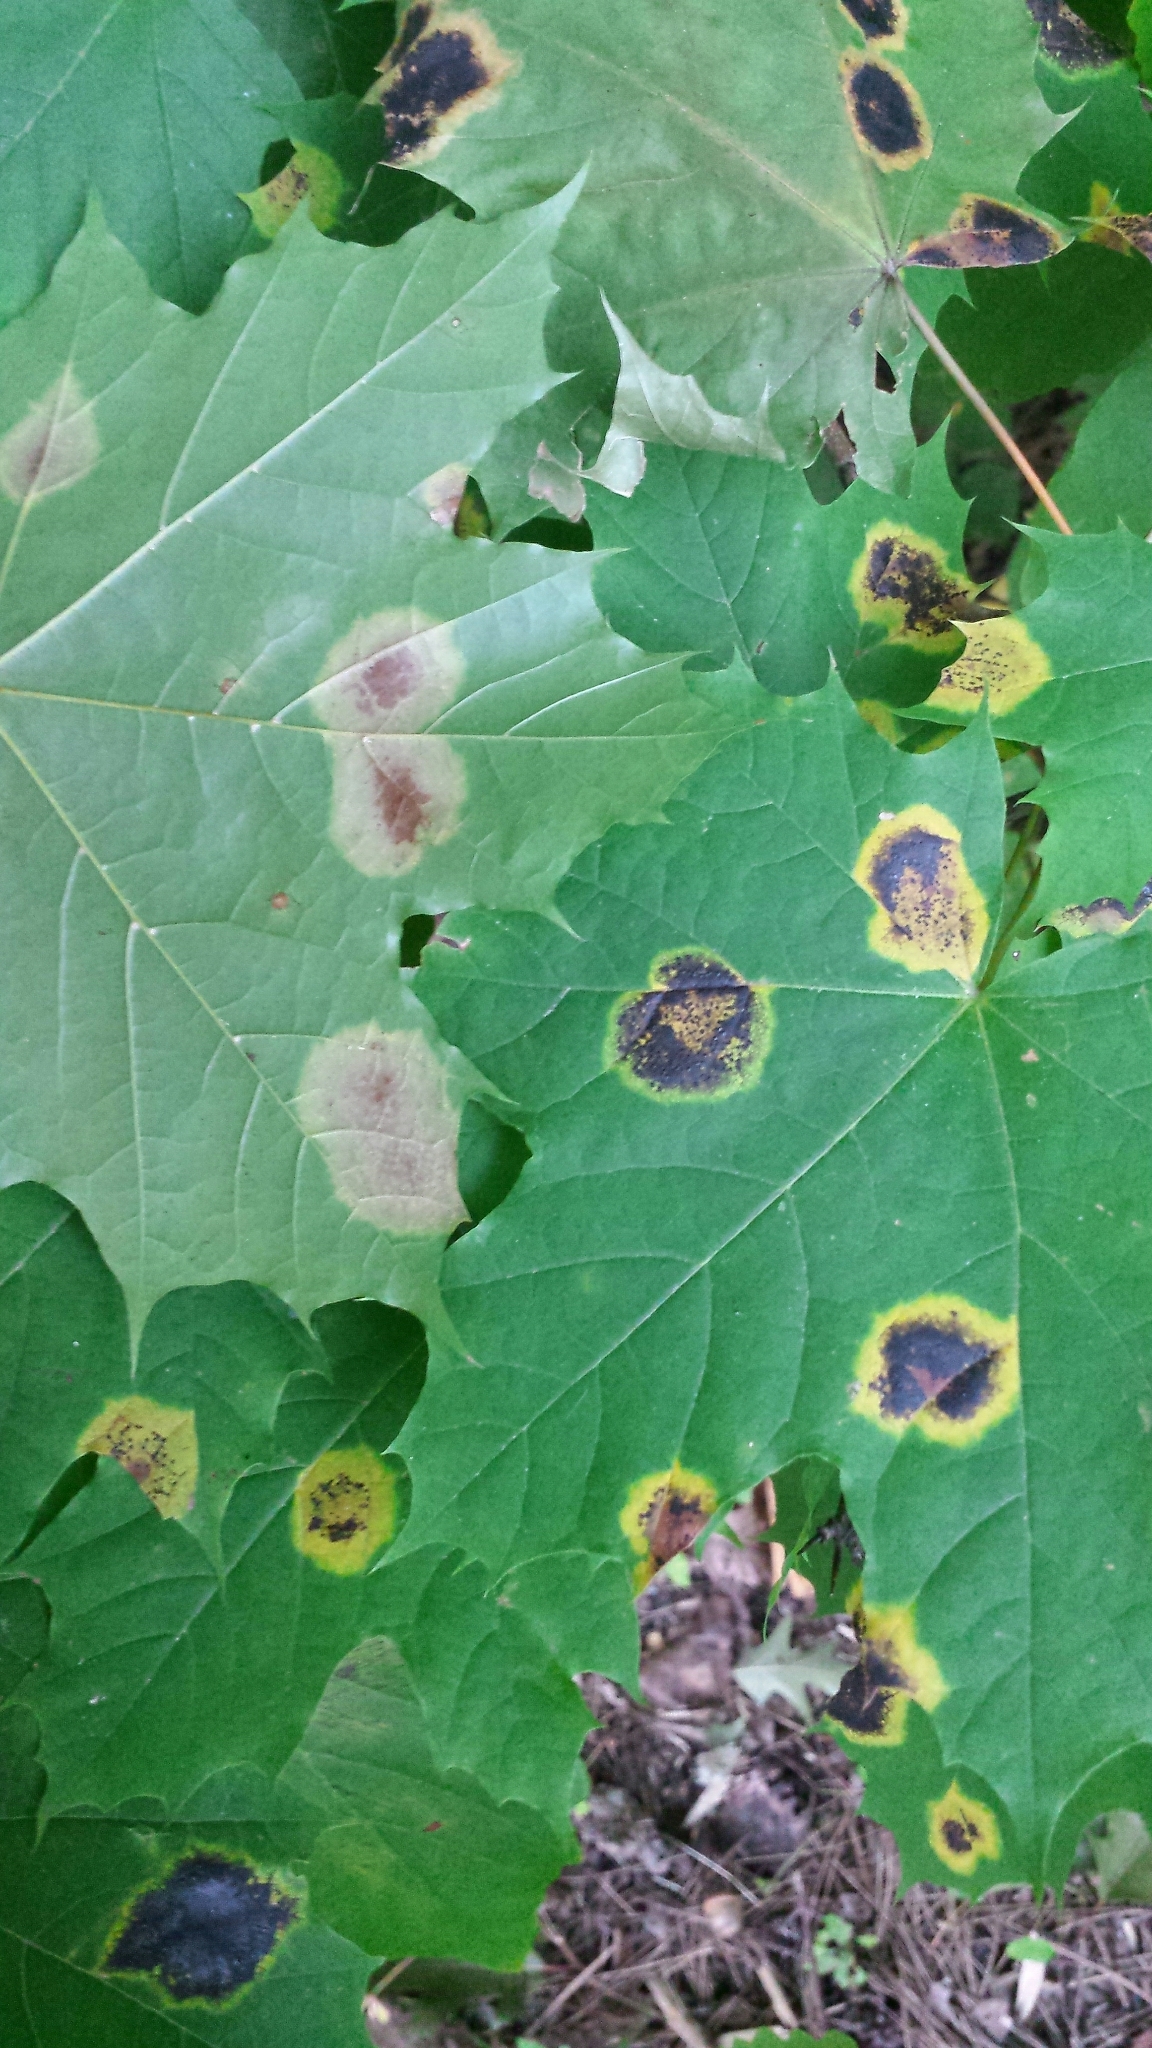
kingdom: Fungi
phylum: Ascomycota
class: Leotiomycetes
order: Rhytismatales
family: Rhytismataceae
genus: Rhytisma
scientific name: Rhytisma acerinum
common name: European tar spot
